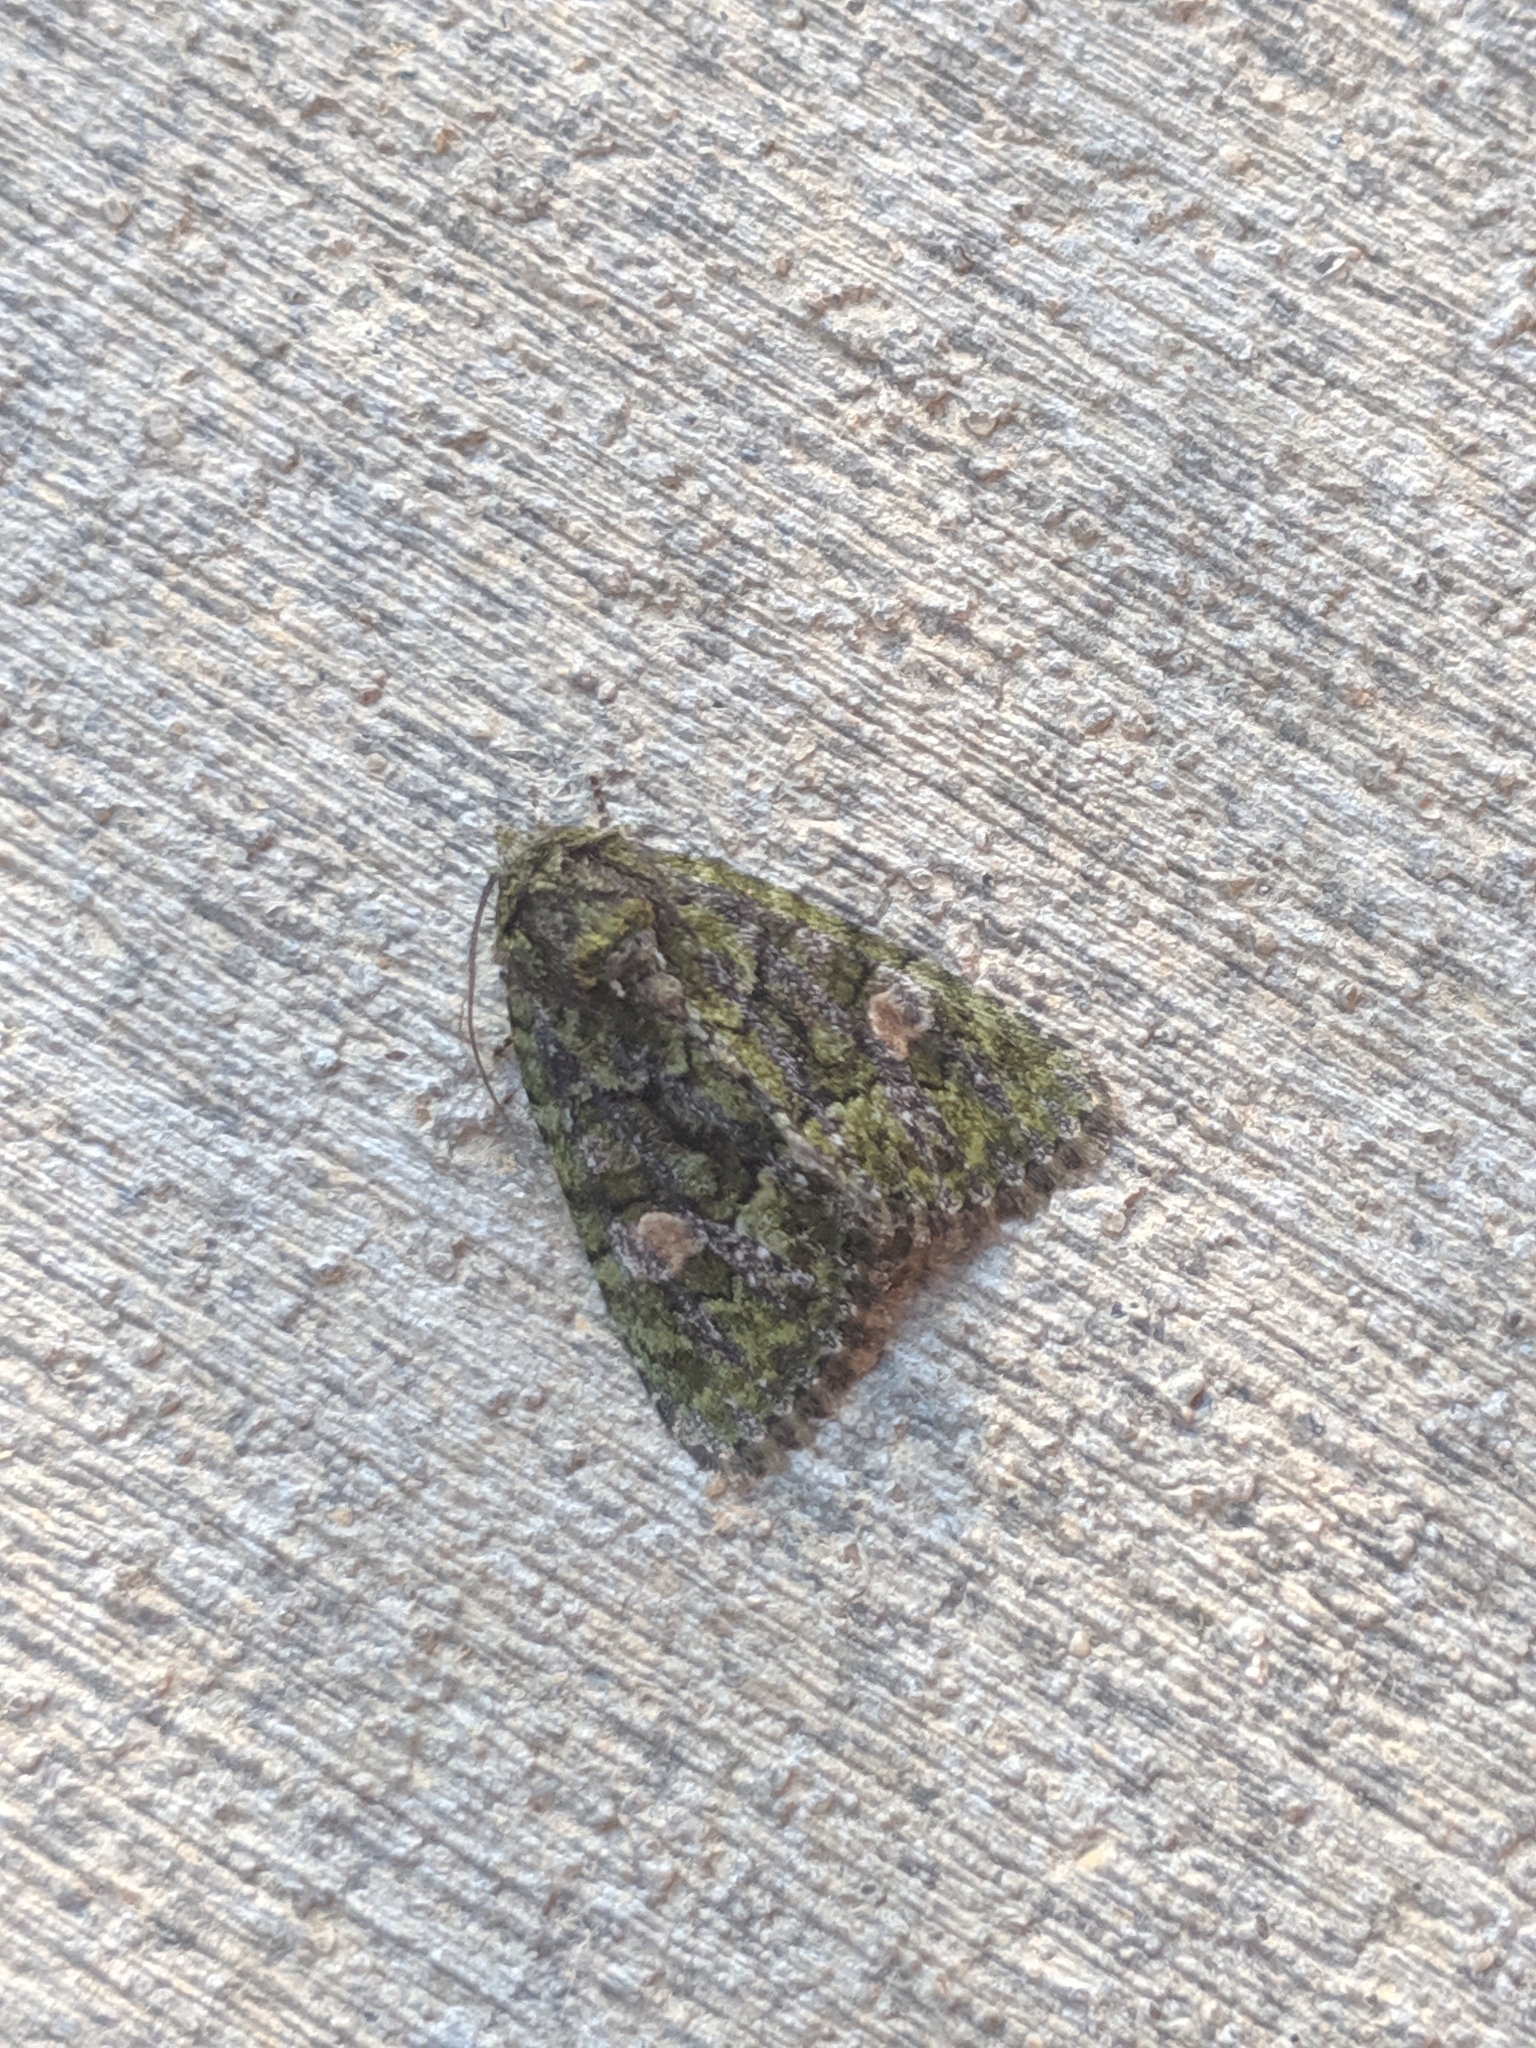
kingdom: Animalia
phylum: Arthropoda
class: Insecta
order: Lepidoptera
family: Noctuidae
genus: Phosphila
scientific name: Phosphila miselioides
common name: Spotted phosphila moth
